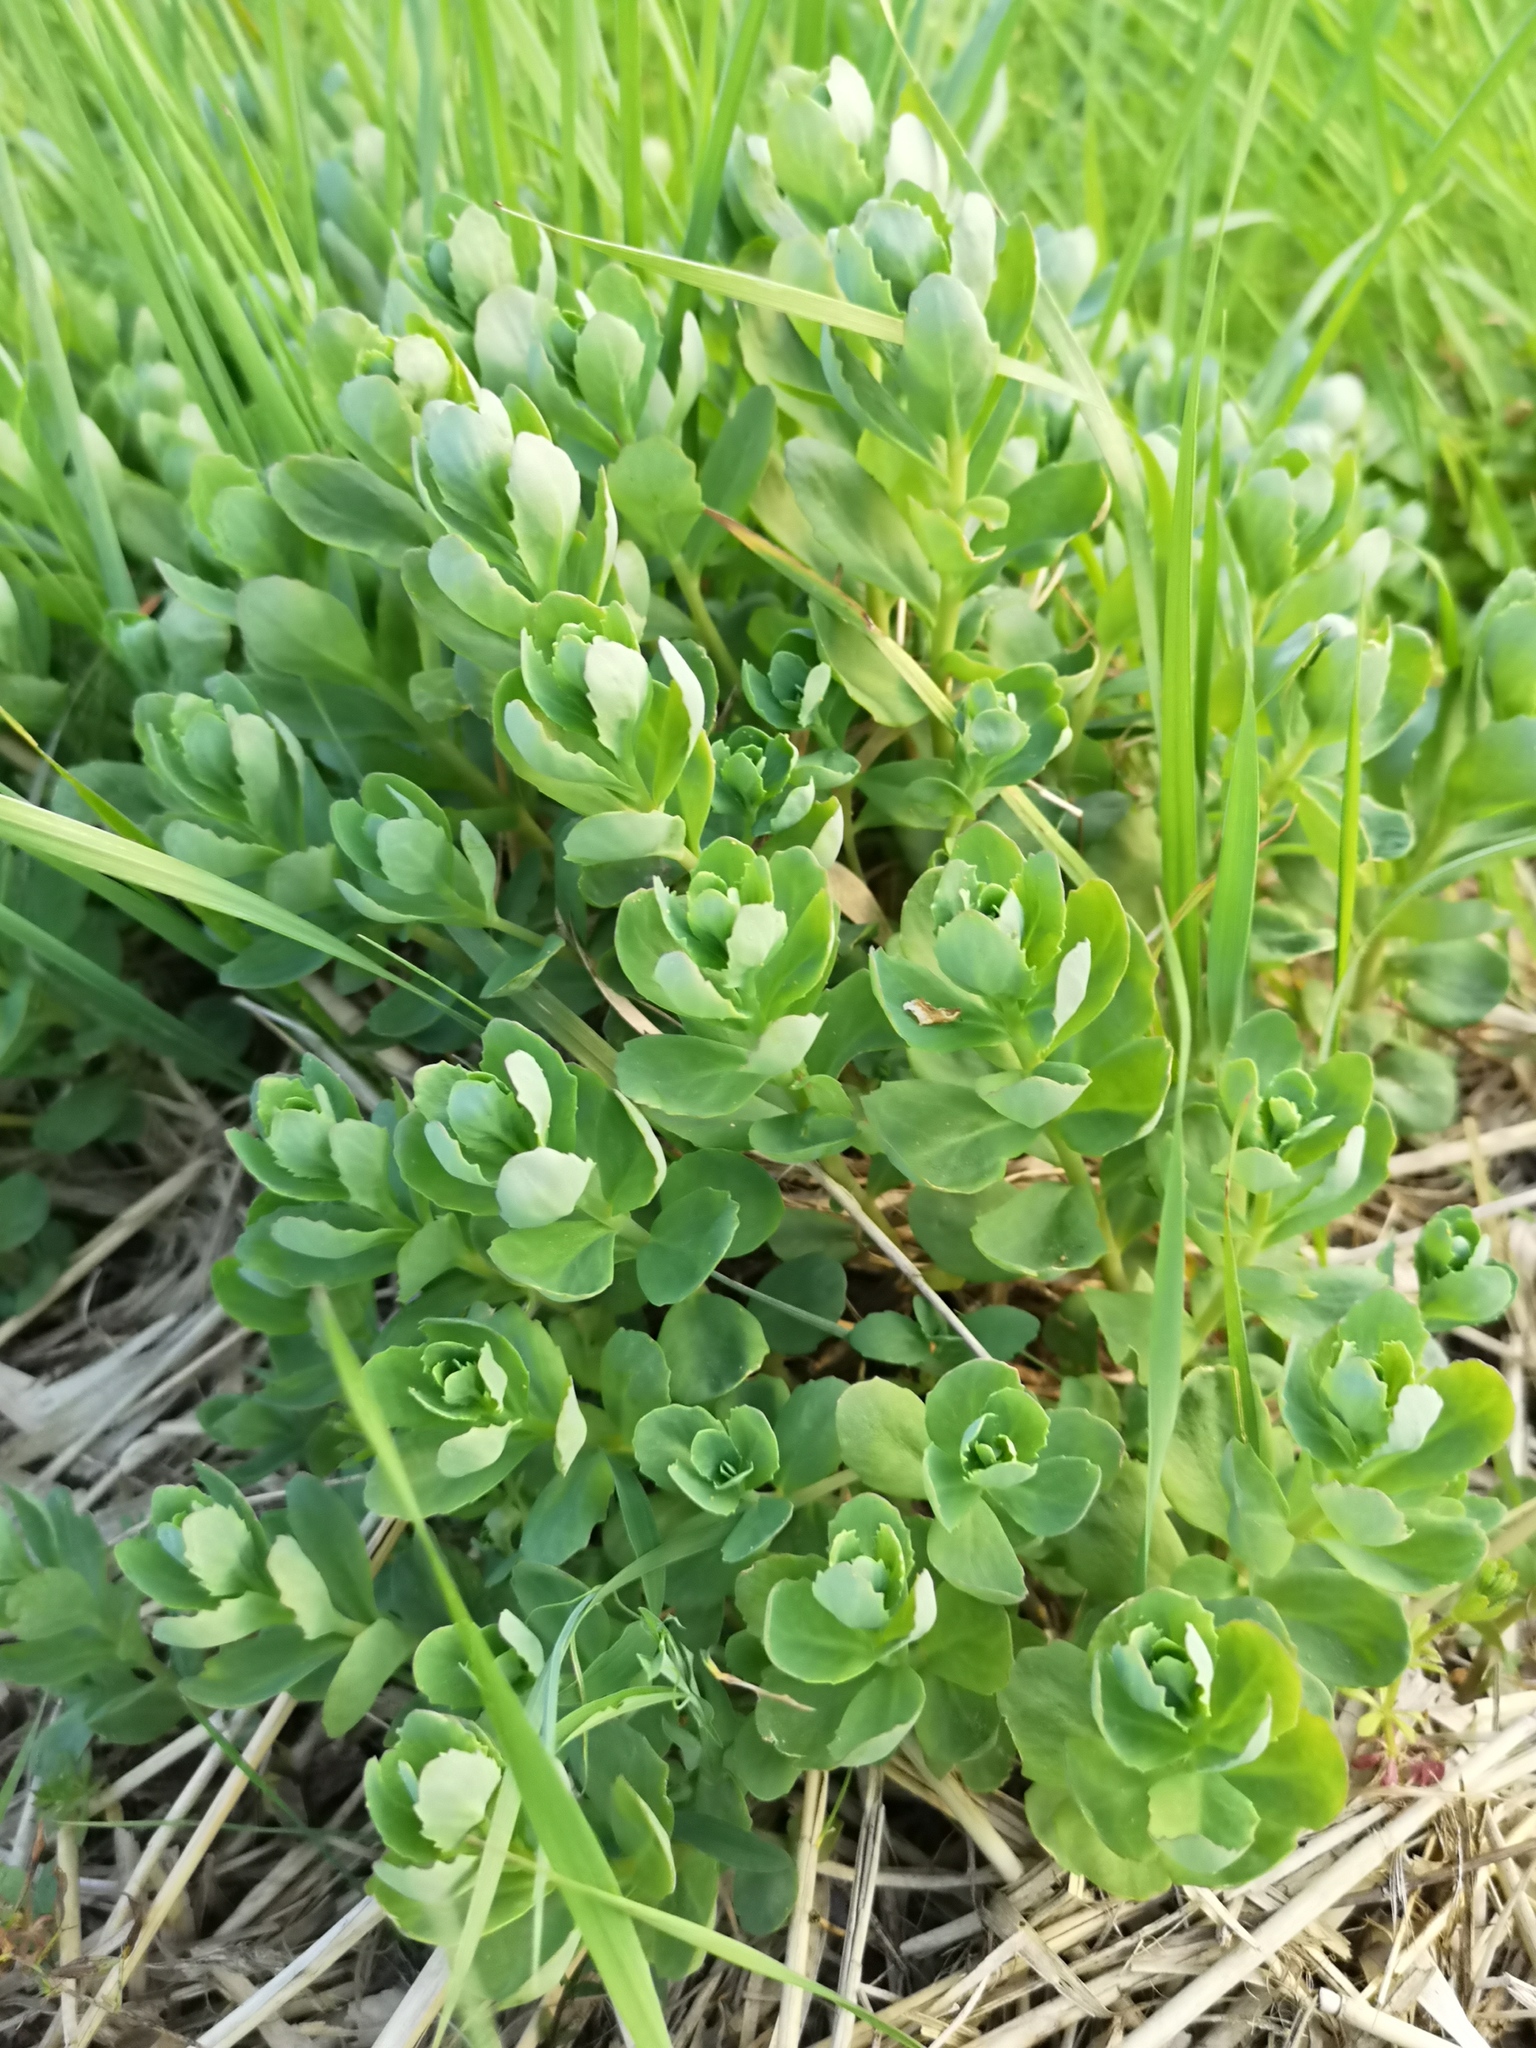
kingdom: Plantae
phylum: Tracheophyta
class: Magnoliopsida
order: Saxifragales
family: Crassulaceae
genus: Hylotelephium
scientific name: Hylotelephium telephium
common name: Live-forever
